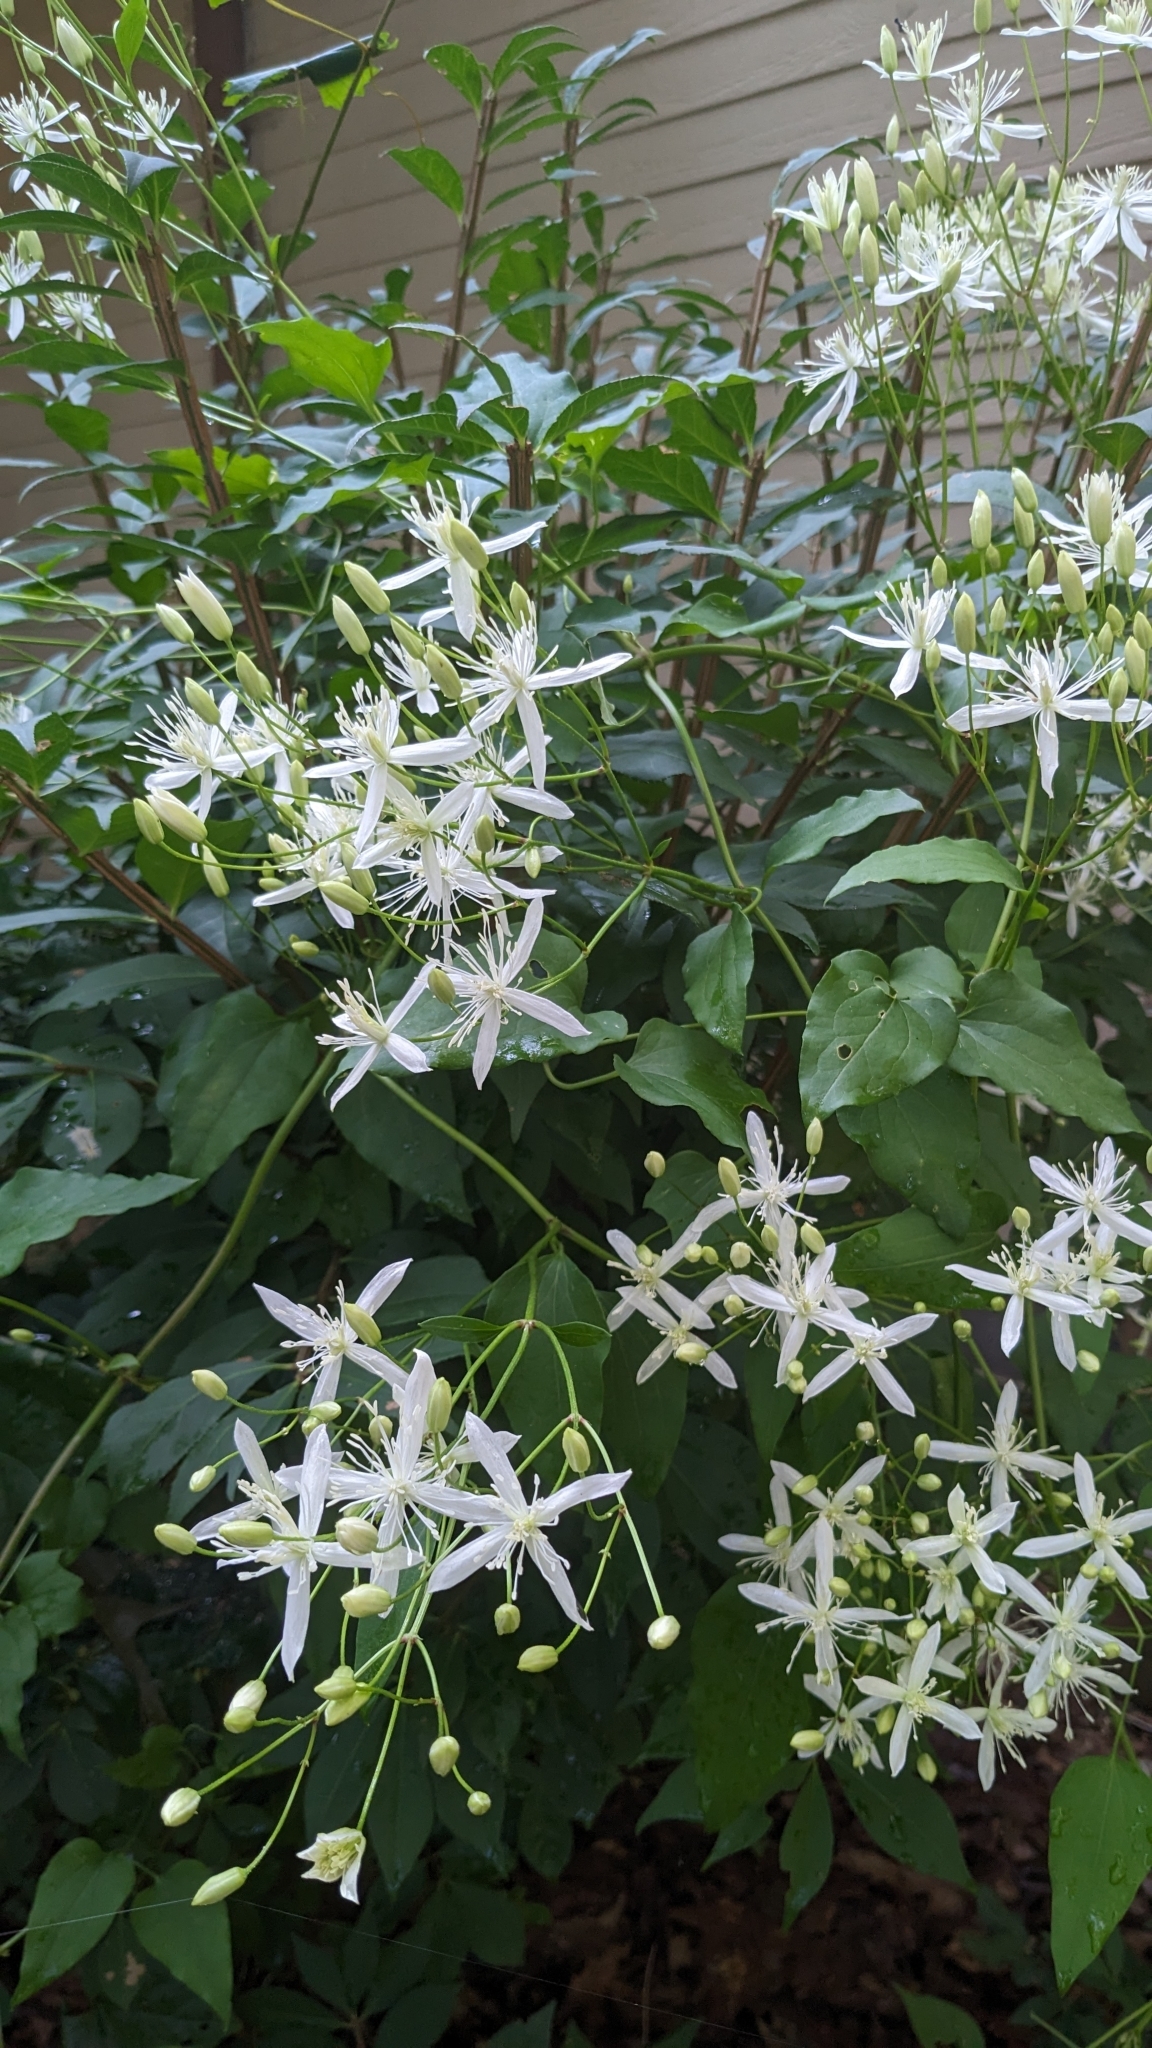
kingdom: Plantae
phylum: Tracheophyta
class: Magnoliopsida
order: Ranunculales
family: Ranunculaceae
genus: Clematis
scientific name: Clematis terniflora
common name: Sweet autumn clematis
